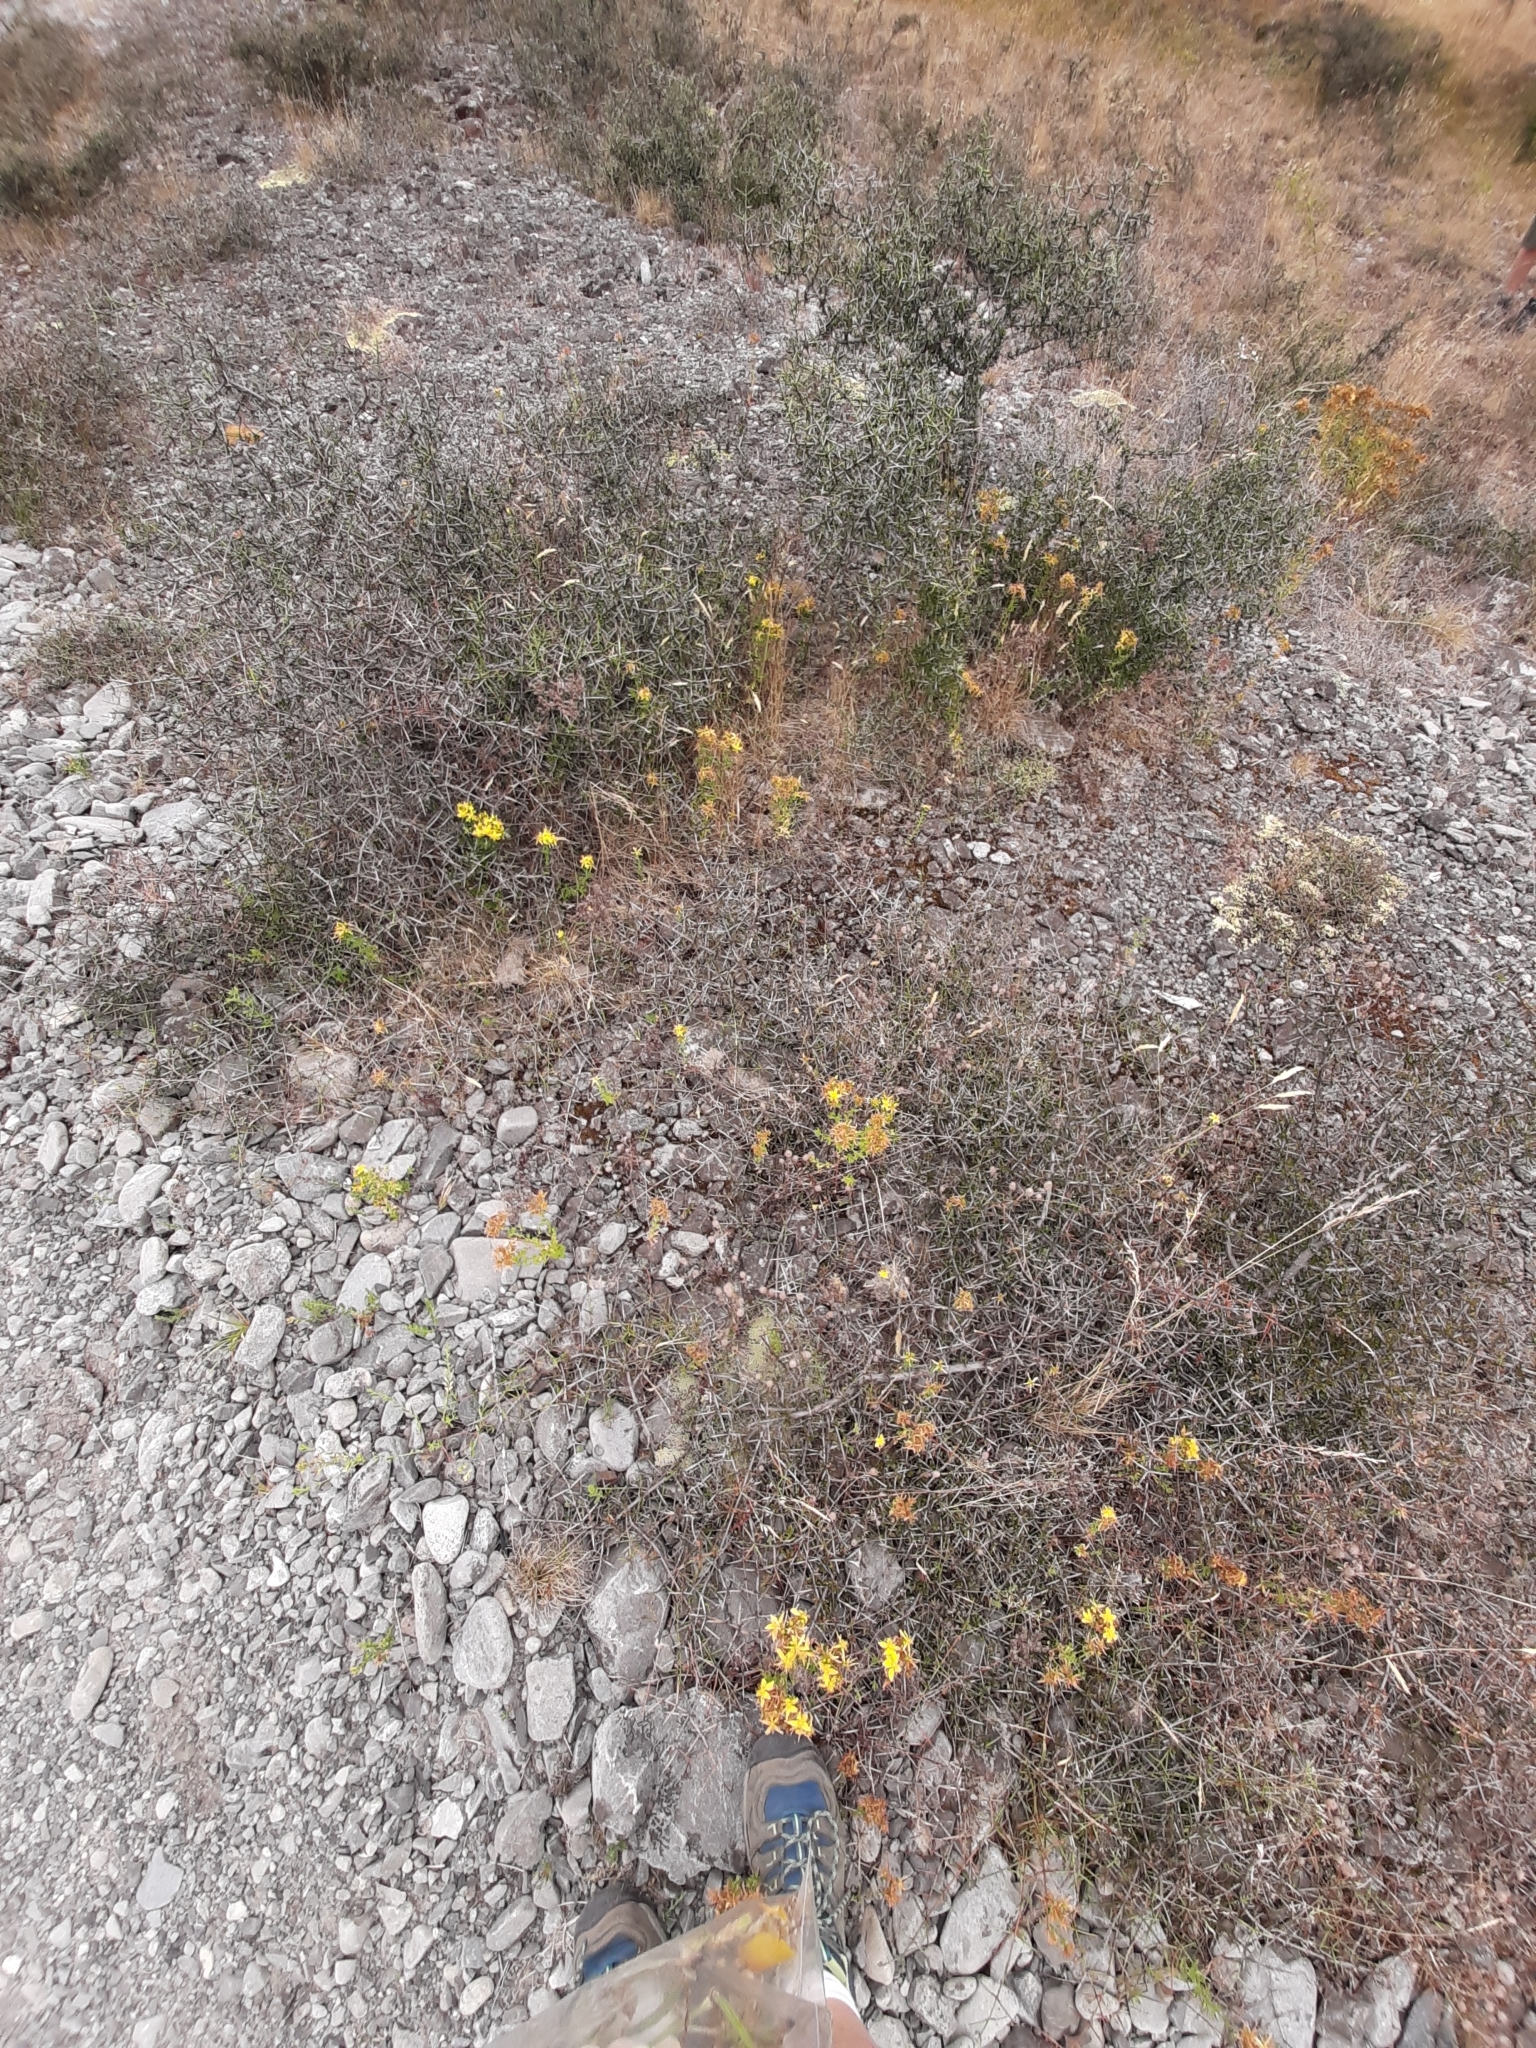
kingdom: Plantae
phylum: Tracheophyta
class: Magnoliopsida
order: Malpighiales
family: Hypericaceae
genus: Hypericum
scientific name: Hypericum perforatum
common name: Common st. johnswort
